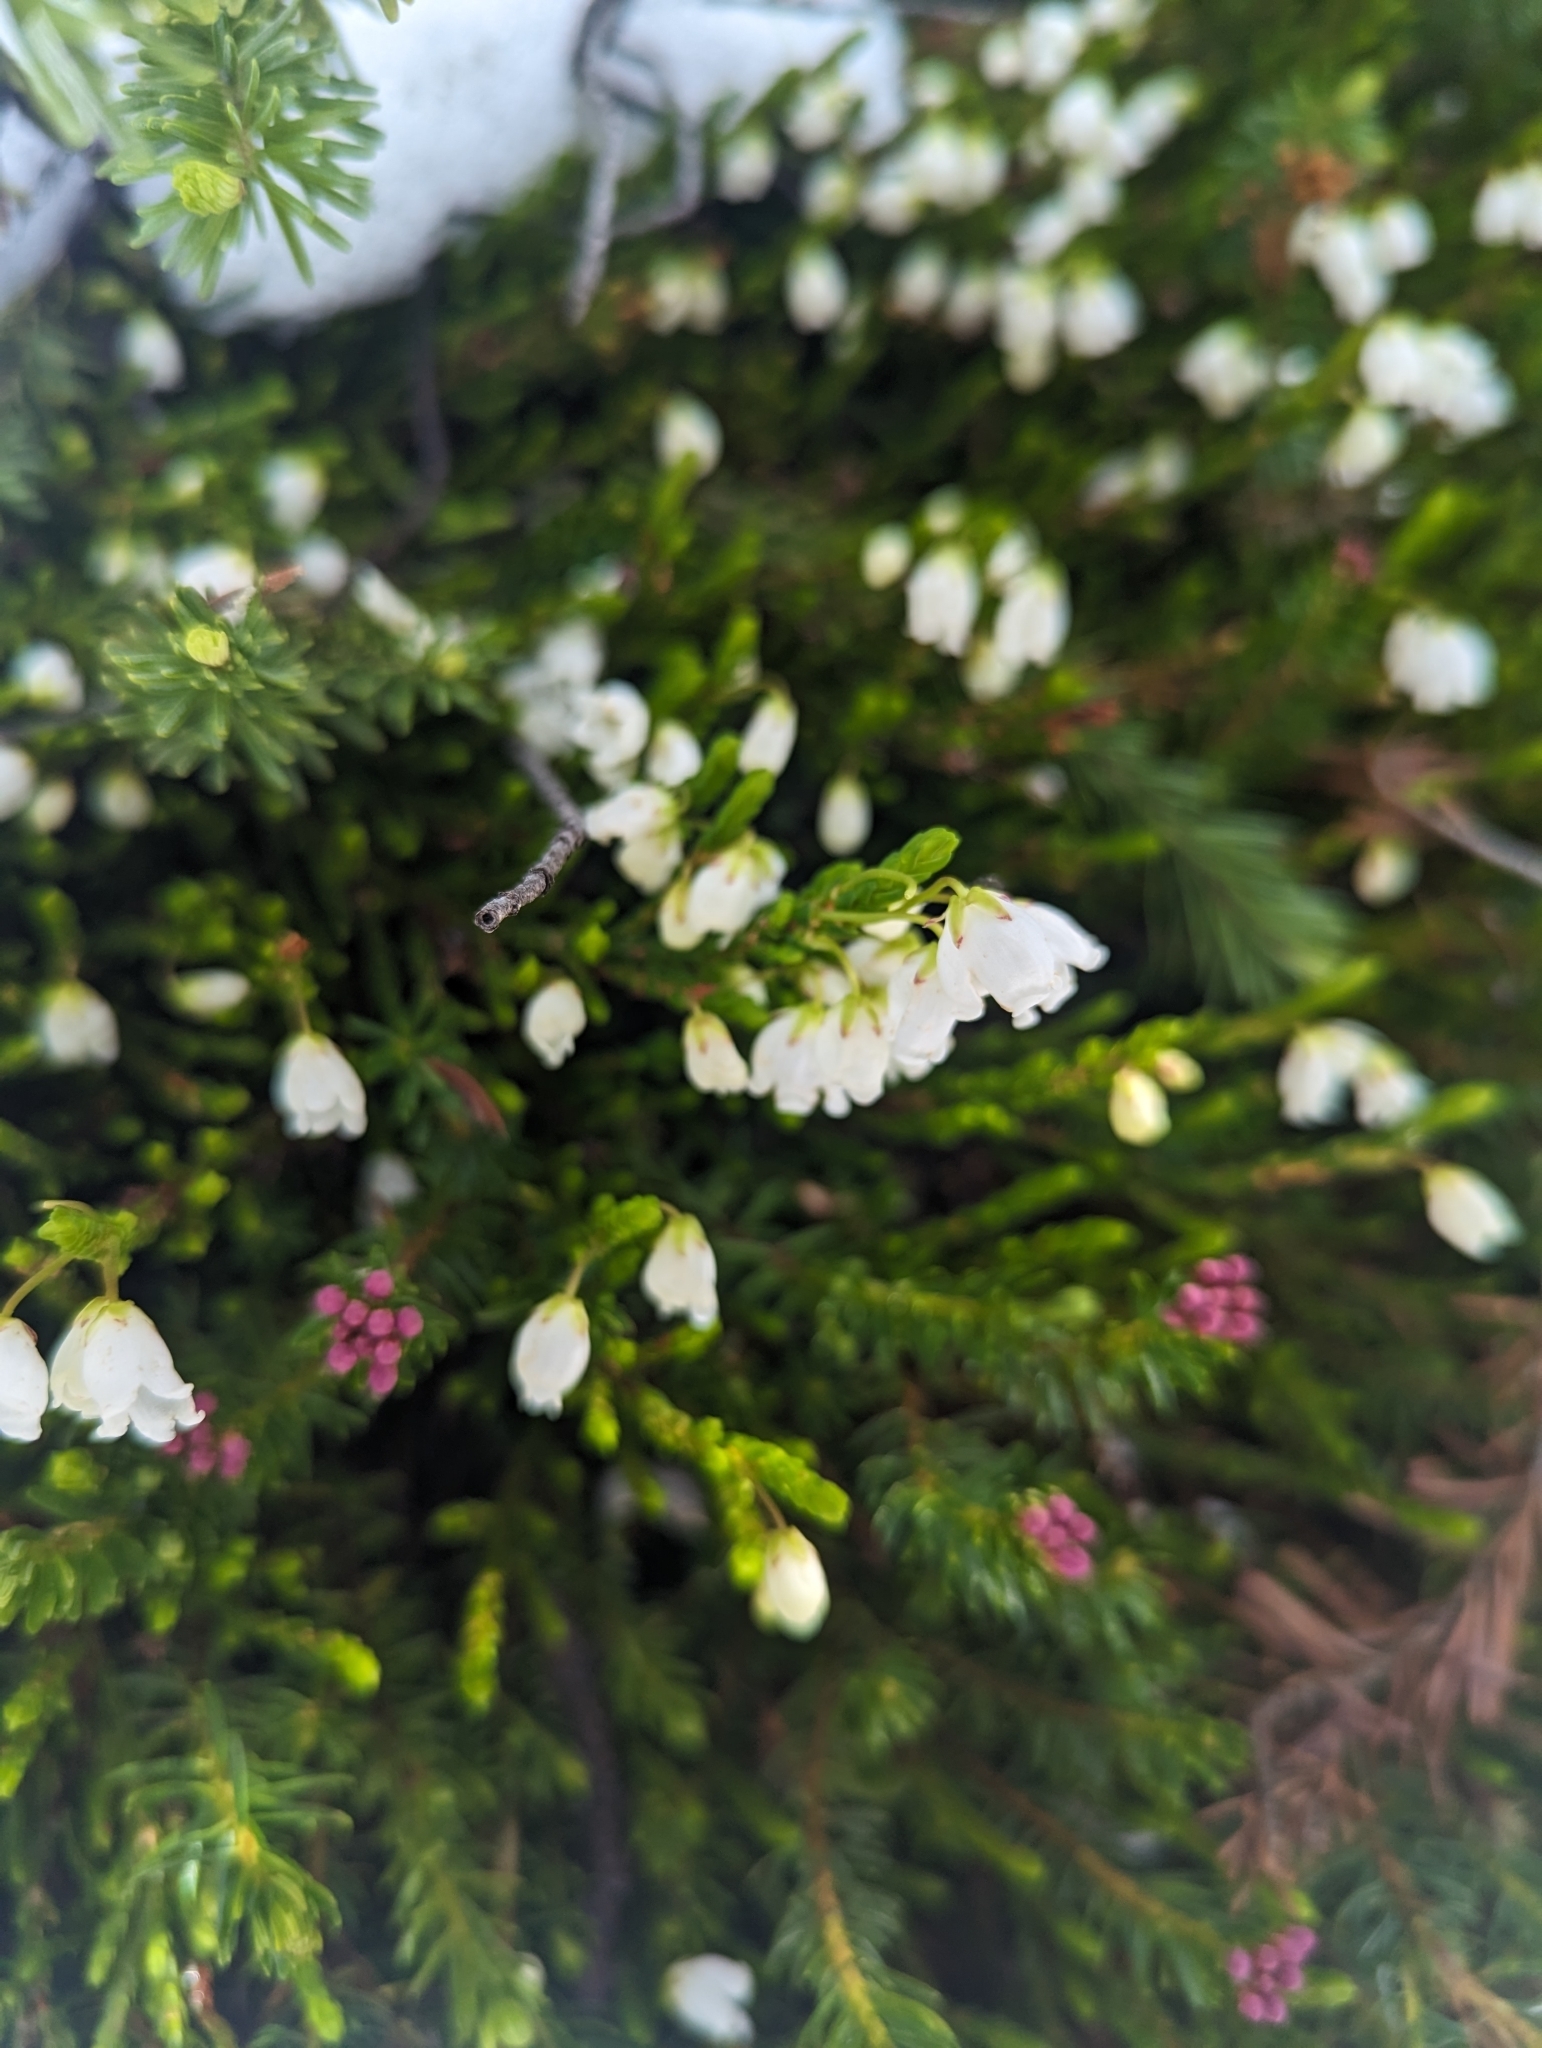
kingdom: Plantae
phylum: Tracheophyta
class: Magnoliopsida
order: Ericales
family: Ericaceae
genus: Cassiope
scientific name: Cassiope mertensiana
